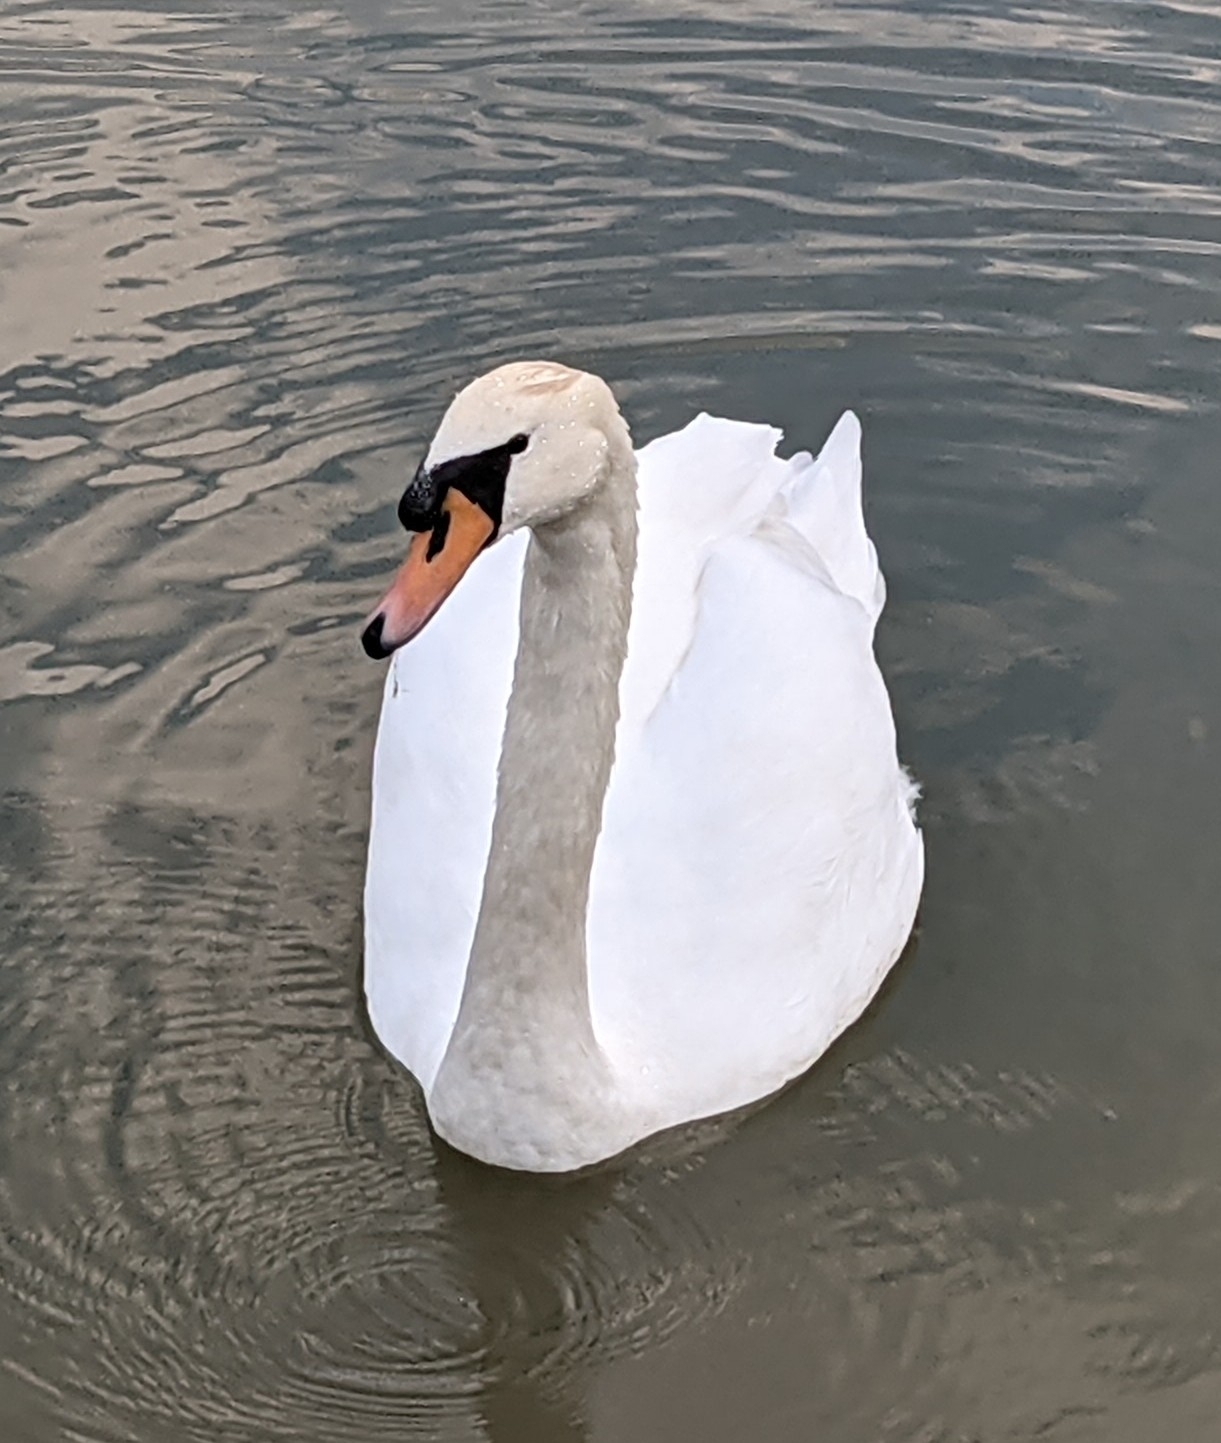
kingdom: Animalia
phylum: Chordata
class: Aves
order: Anseriformes
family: Anatidae
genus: Cygnus
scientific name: Cygnus olor
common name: Mute swan
